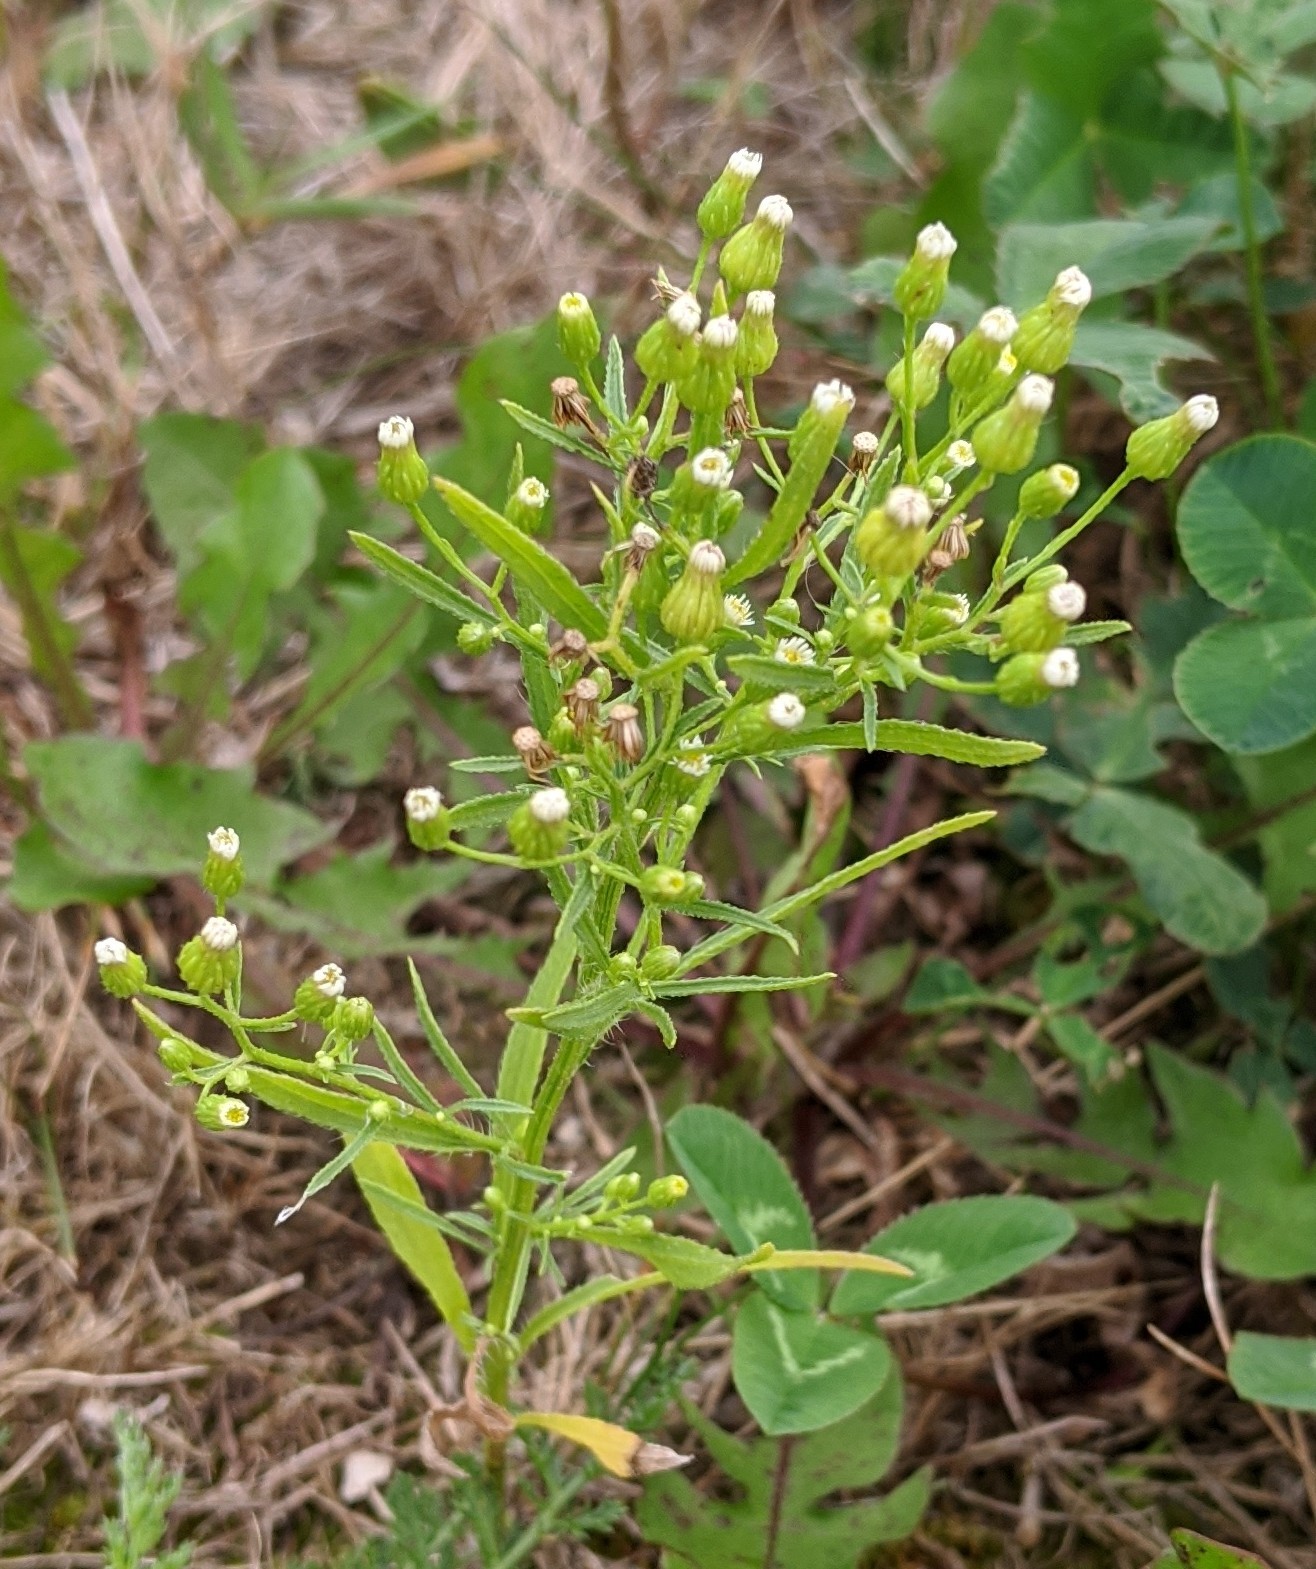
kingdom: Plantae
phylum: Tracheophyta
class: Magnoliopsida
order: Asterales
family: Asteraceae
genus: Erigeron
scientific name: Erigeron canadensis
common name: Canadian fleabane
